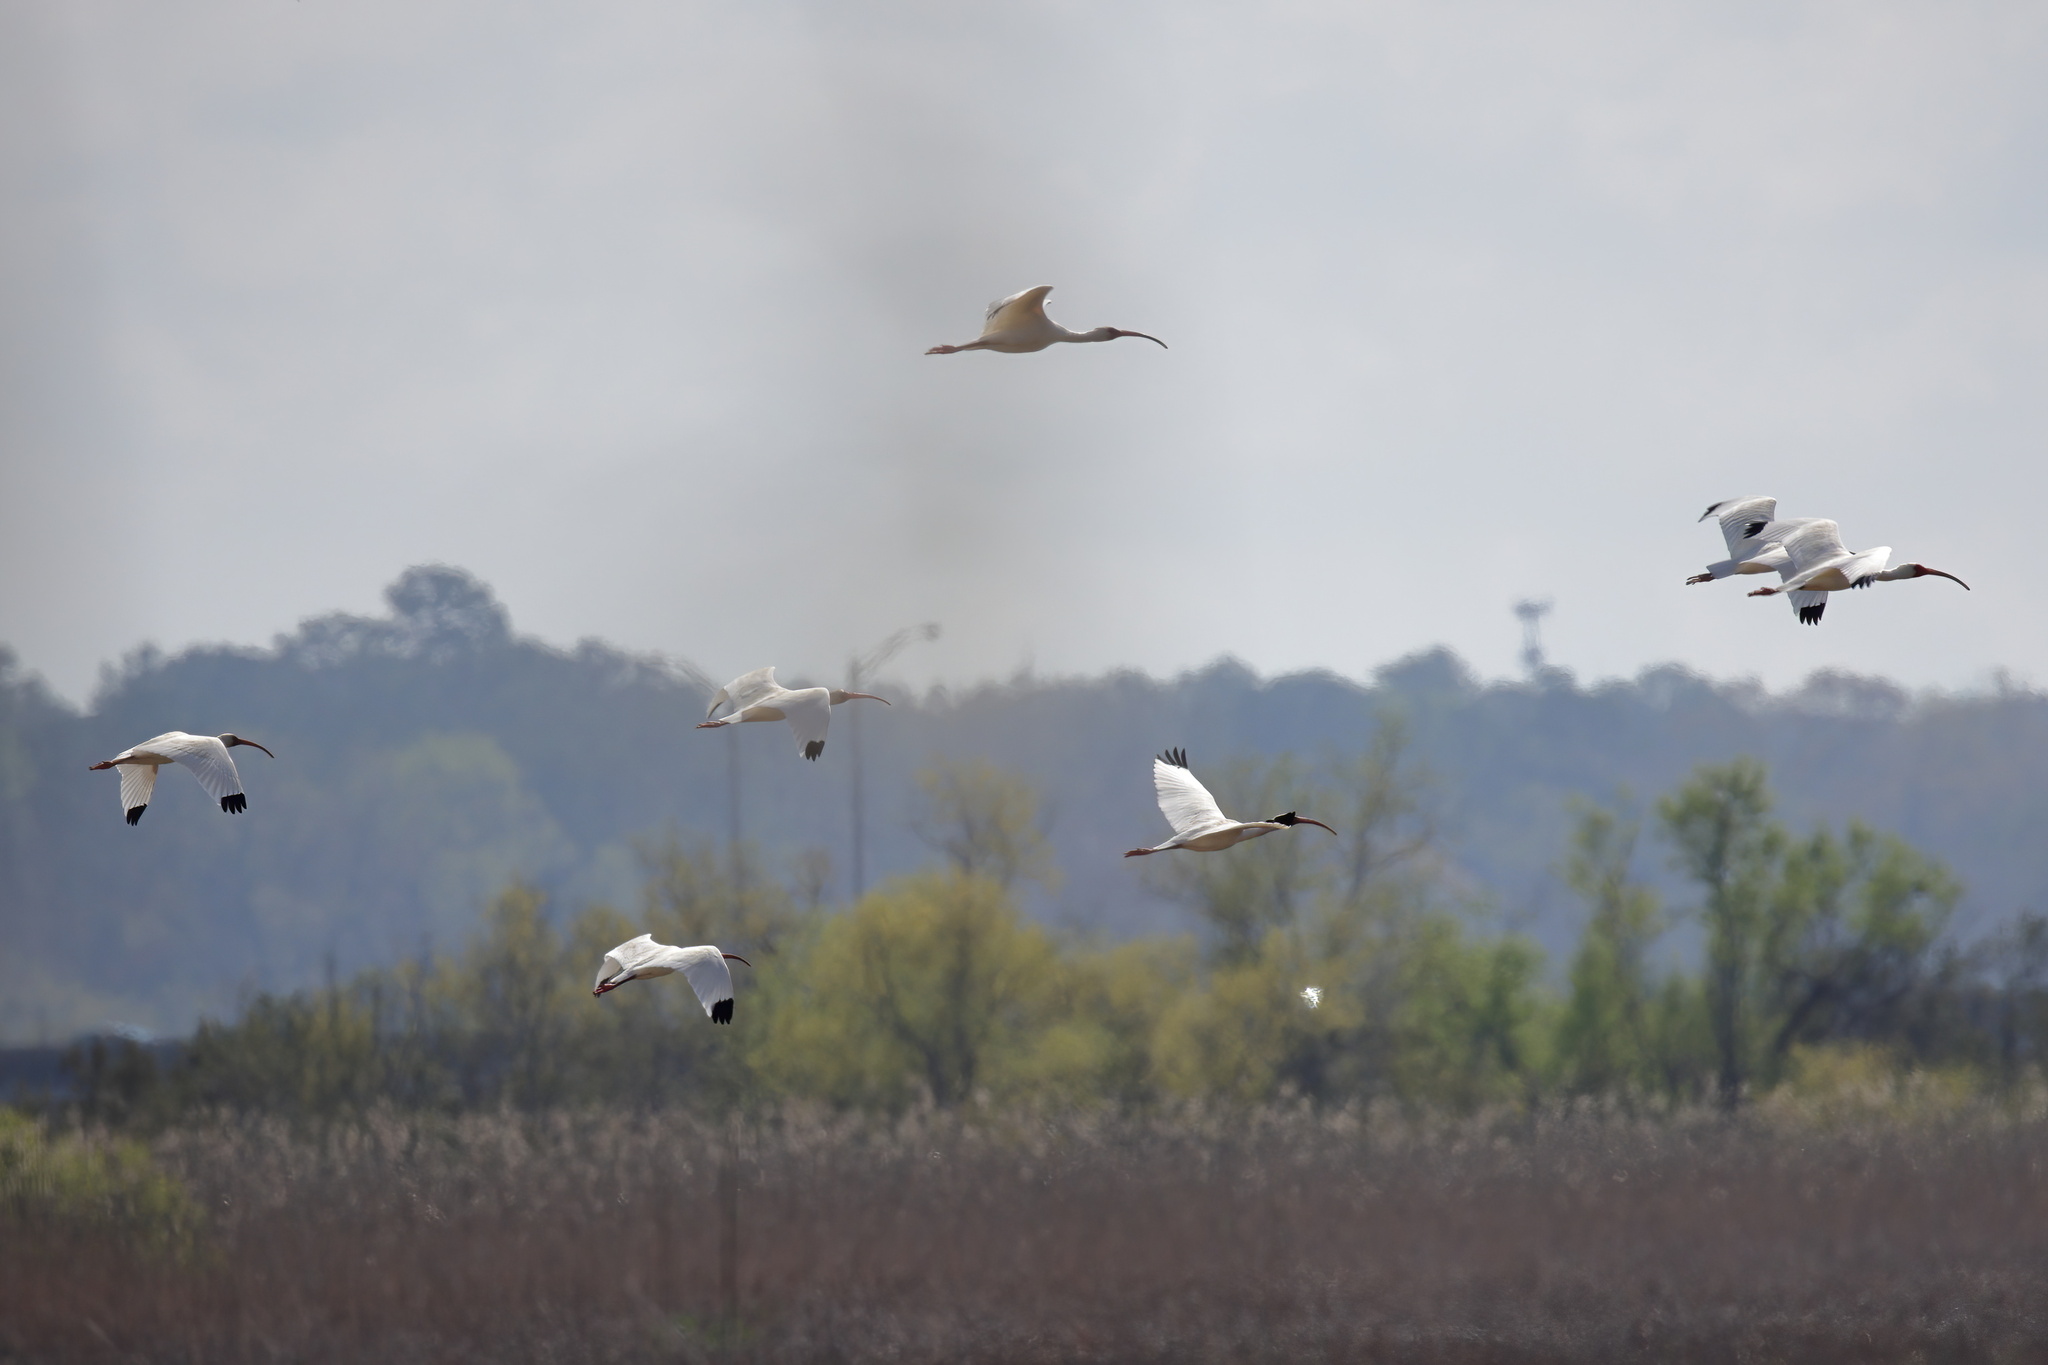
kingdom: Animalia
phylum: Chordata
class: Aves
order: Pelecaniformes
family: Threskiornithidae
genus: Eudocimus
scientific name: Eudocimus albus
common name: White ibis
